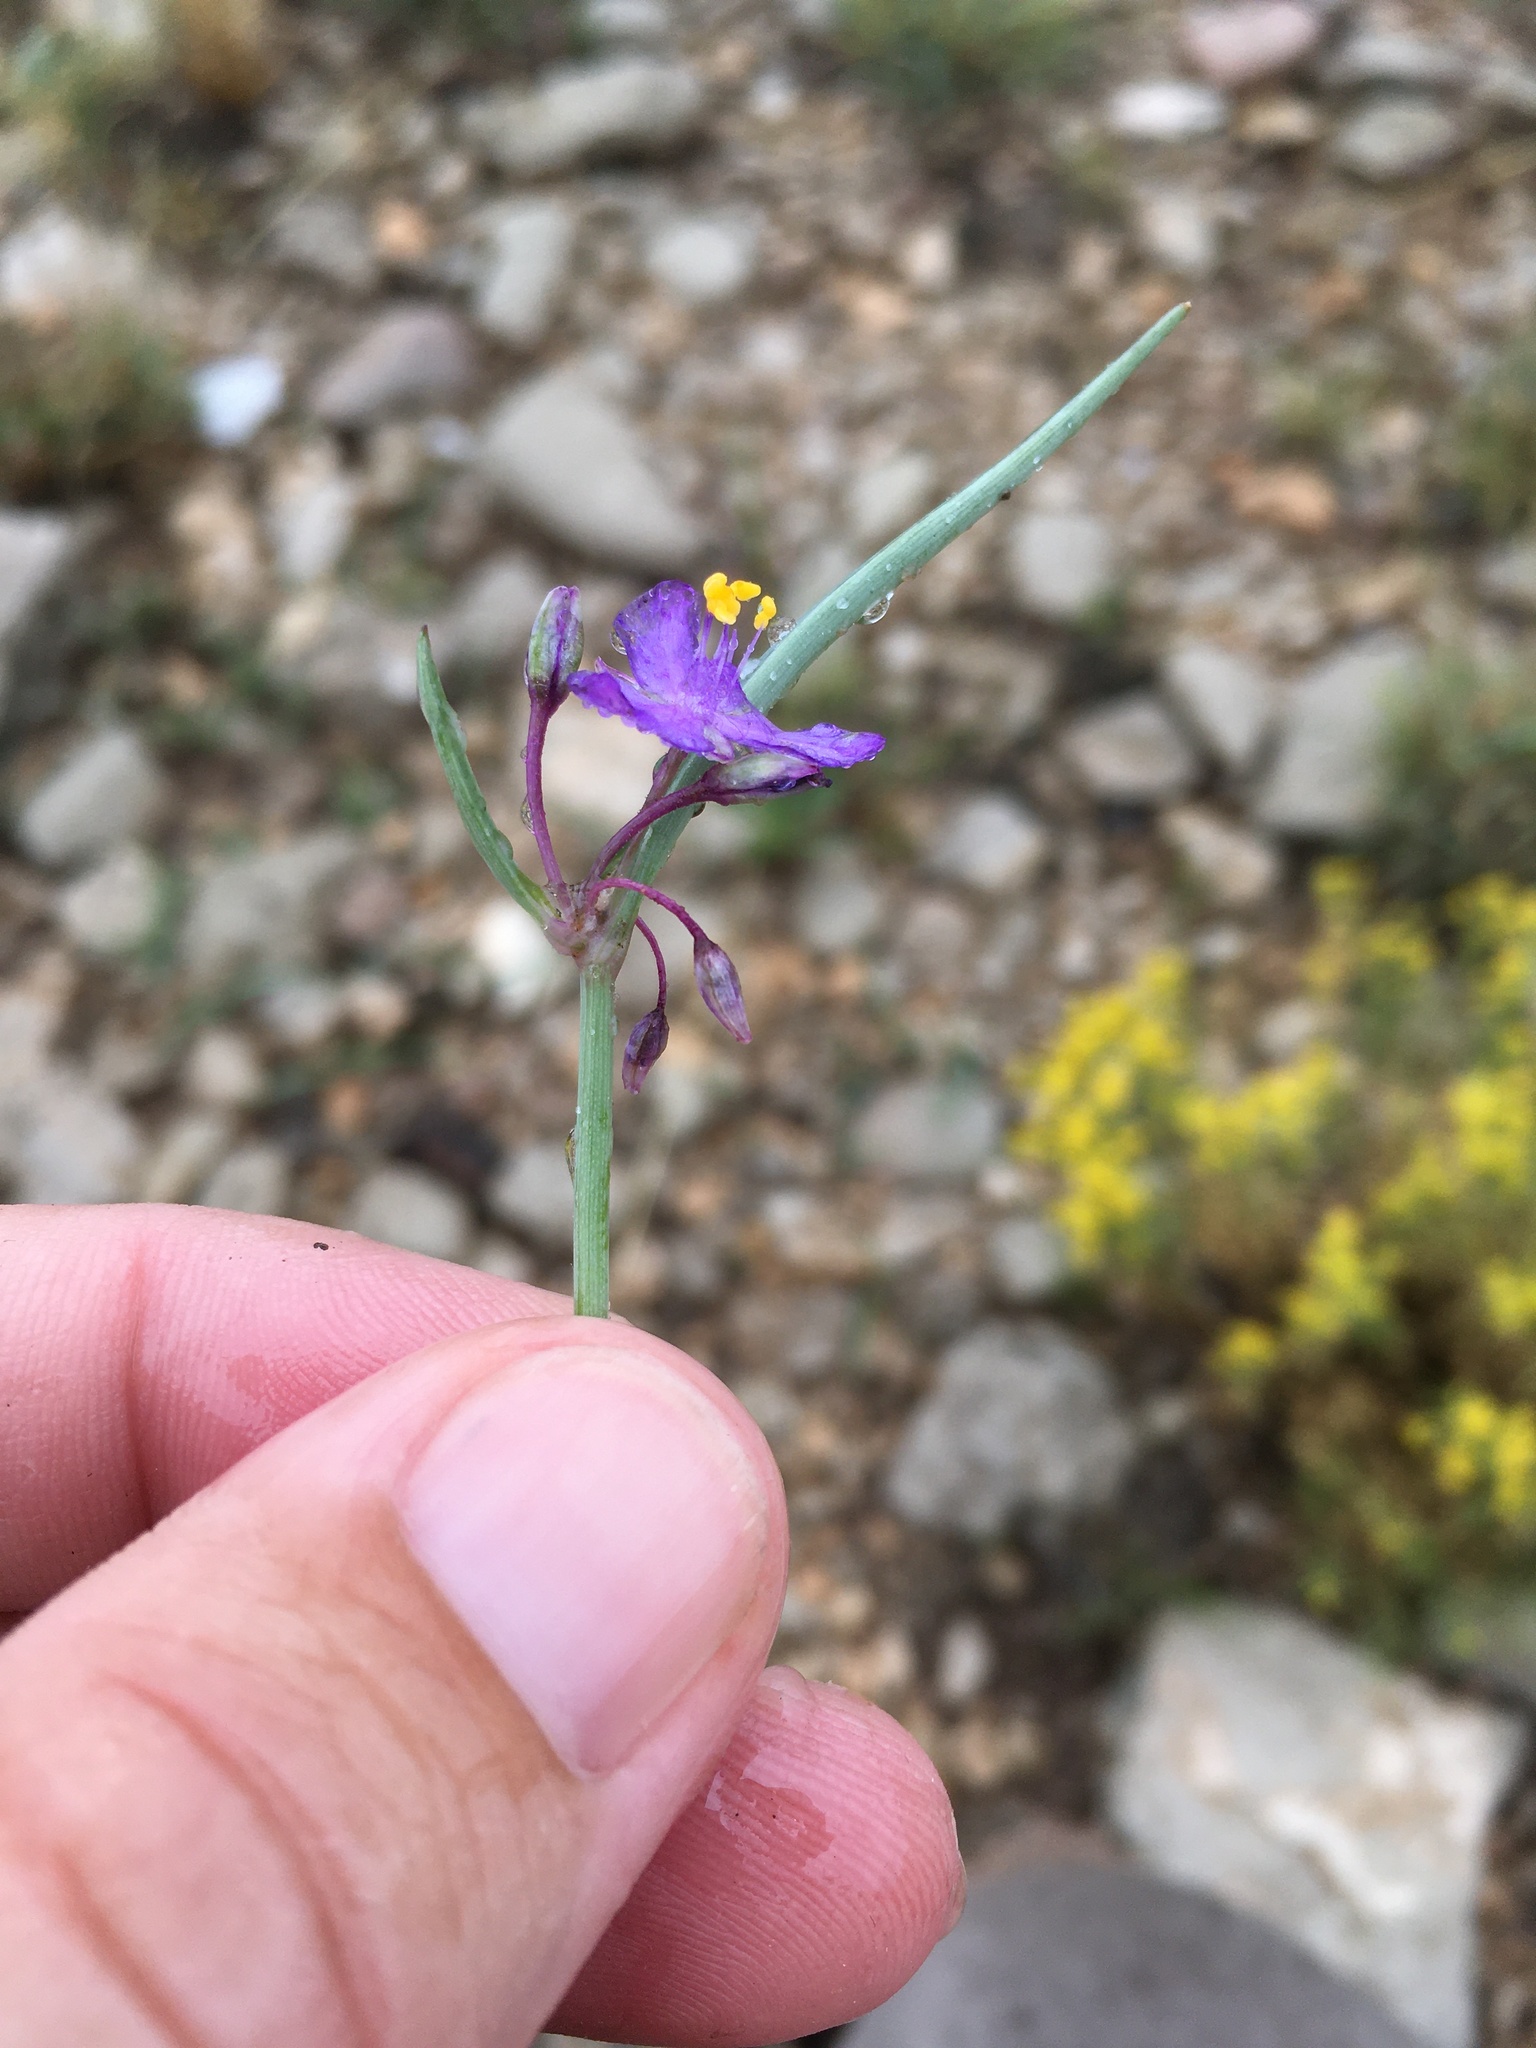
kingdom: Plantae
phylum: Tracheophyta
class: Liliopsida
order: Commelinales
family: Commelinaceae
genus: Tradescantia
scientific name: Tradescantia wrightii
